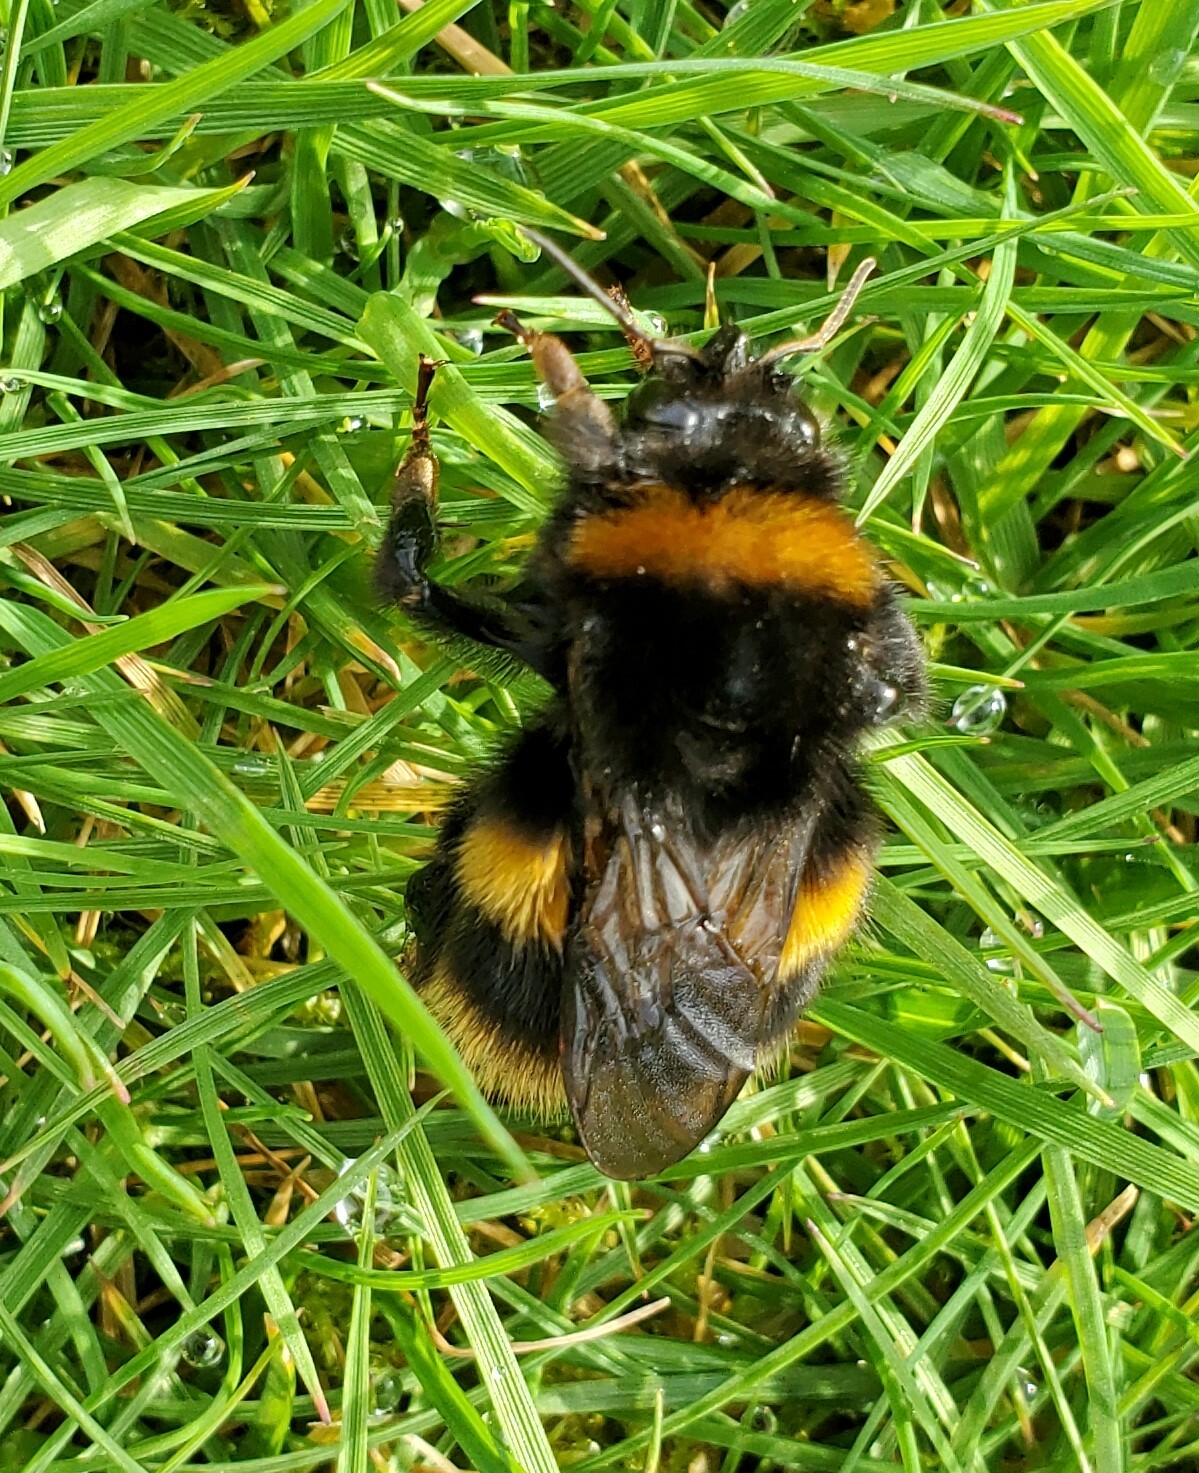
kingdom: Animalia
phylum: Arthropoda
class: Insecta
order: Hymenoptera
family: Apidae
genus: Bombus
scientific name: Bombus terrestris
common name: Buff-tailed bumblebee
